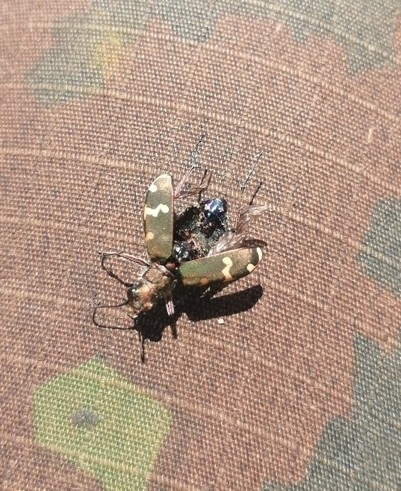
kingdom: Animalia
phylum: Arthropoda
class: Insecta
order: Coleoptera
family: Carabidae
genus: Cicindela
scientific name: Cicindela hybrida
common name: Northern dune tiger beetle
